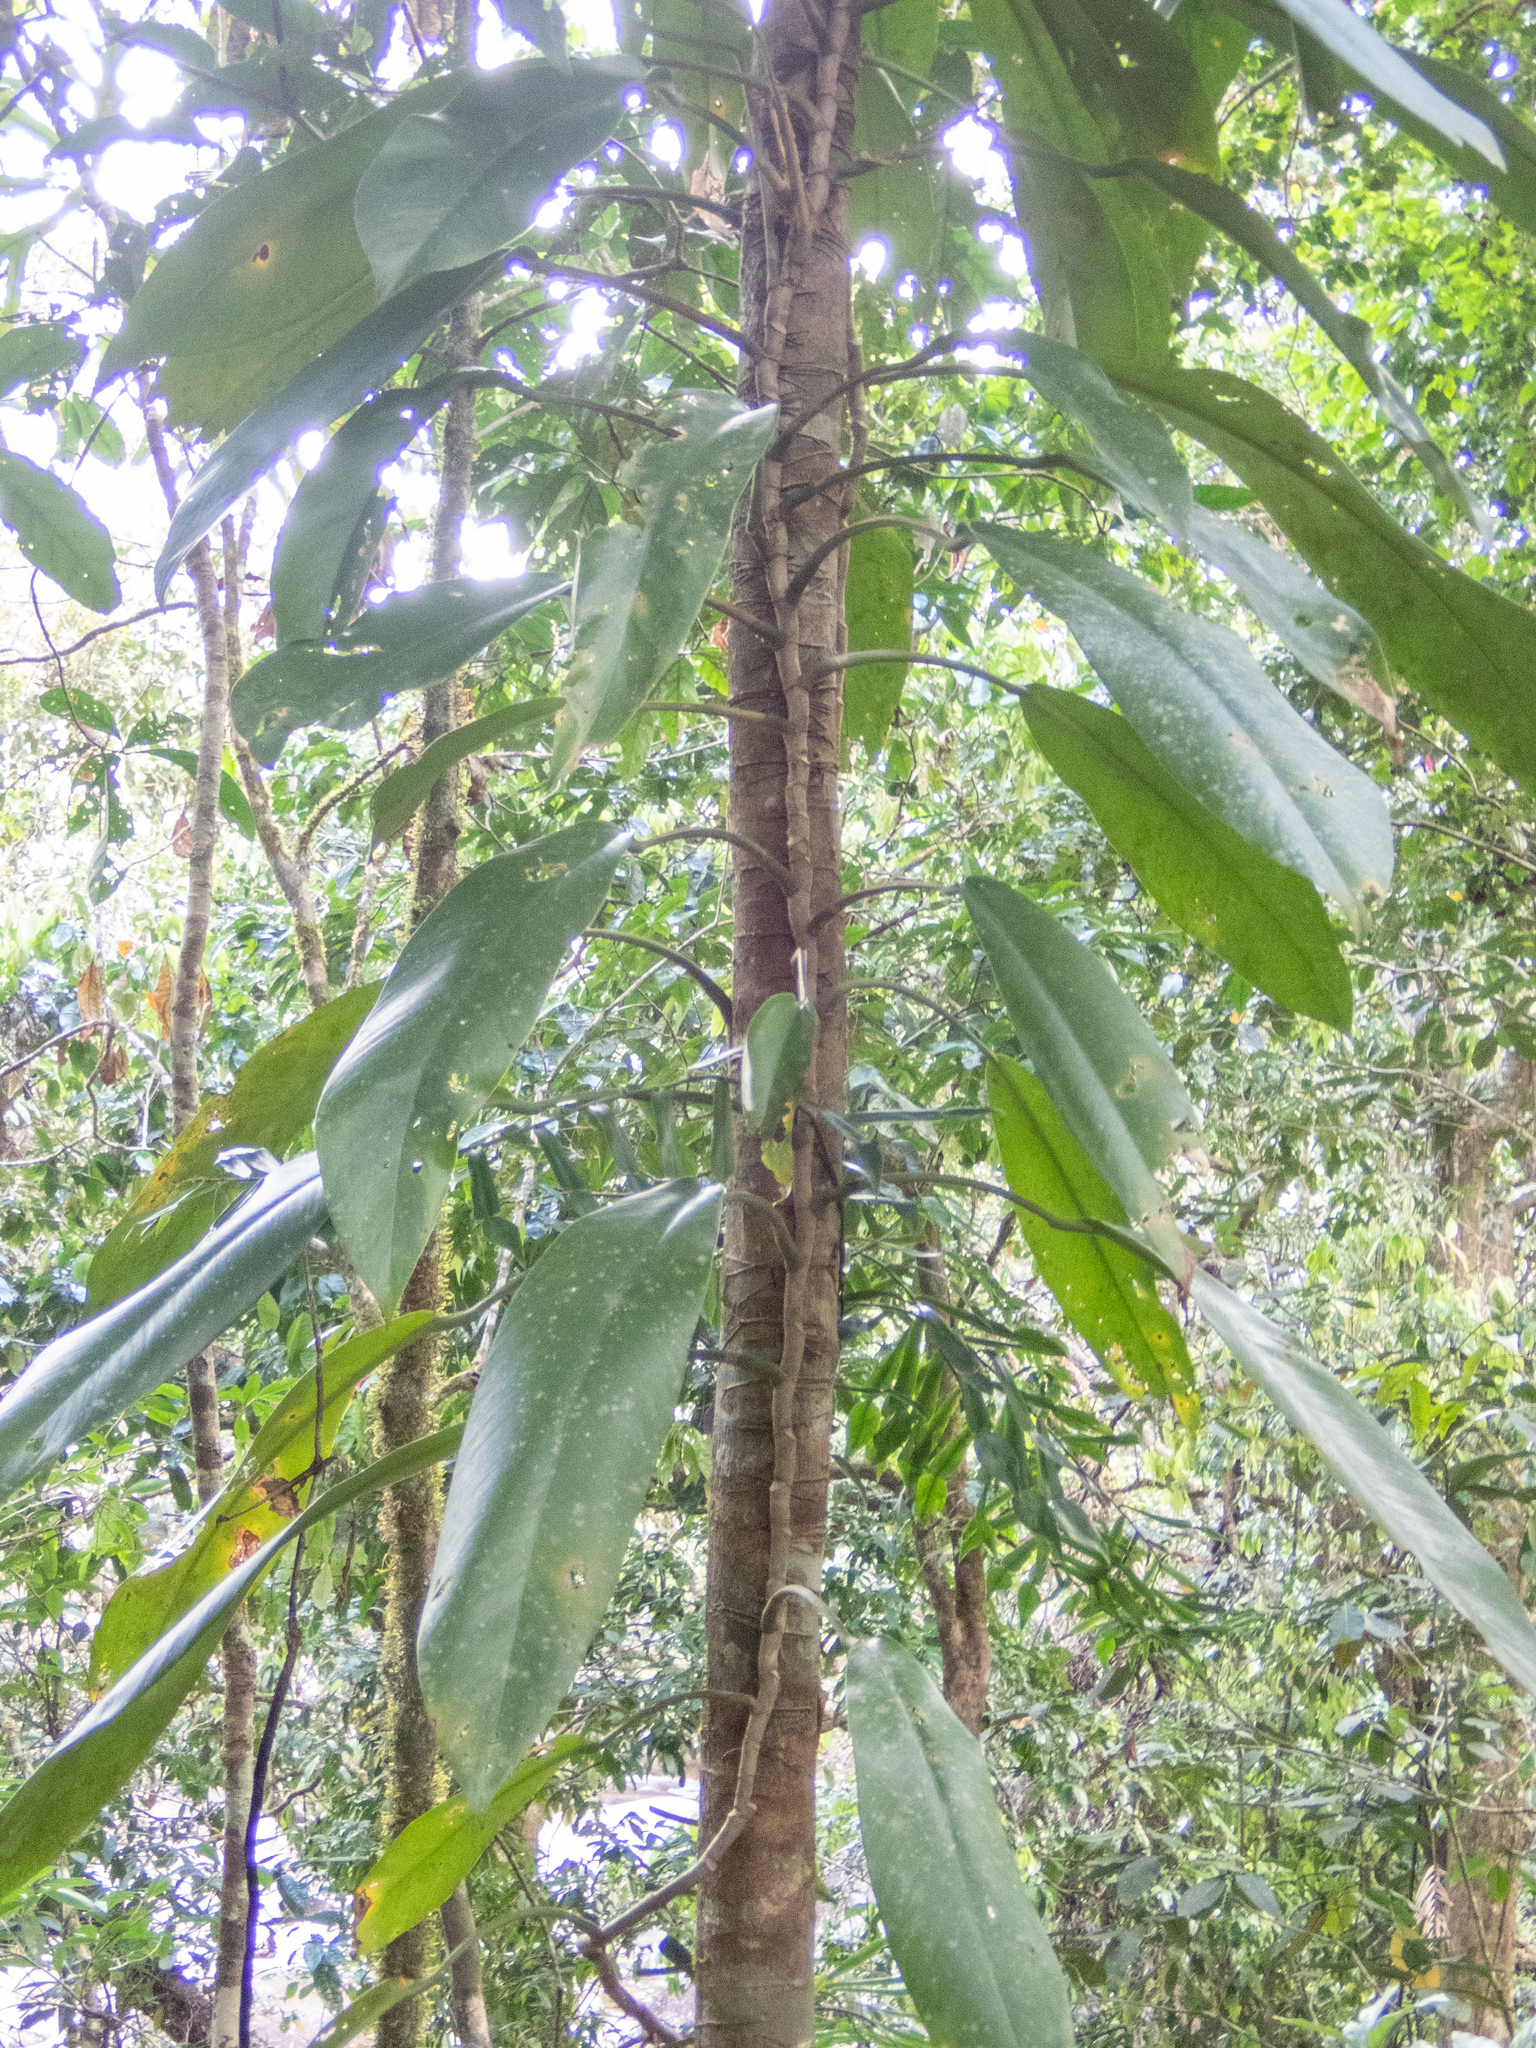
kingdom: Plantae
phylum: Tracheophyta
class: Liliopsida
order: Alismatales
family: Araceae
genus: Rhaphidophora
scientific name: Rhaphidophora australasica
